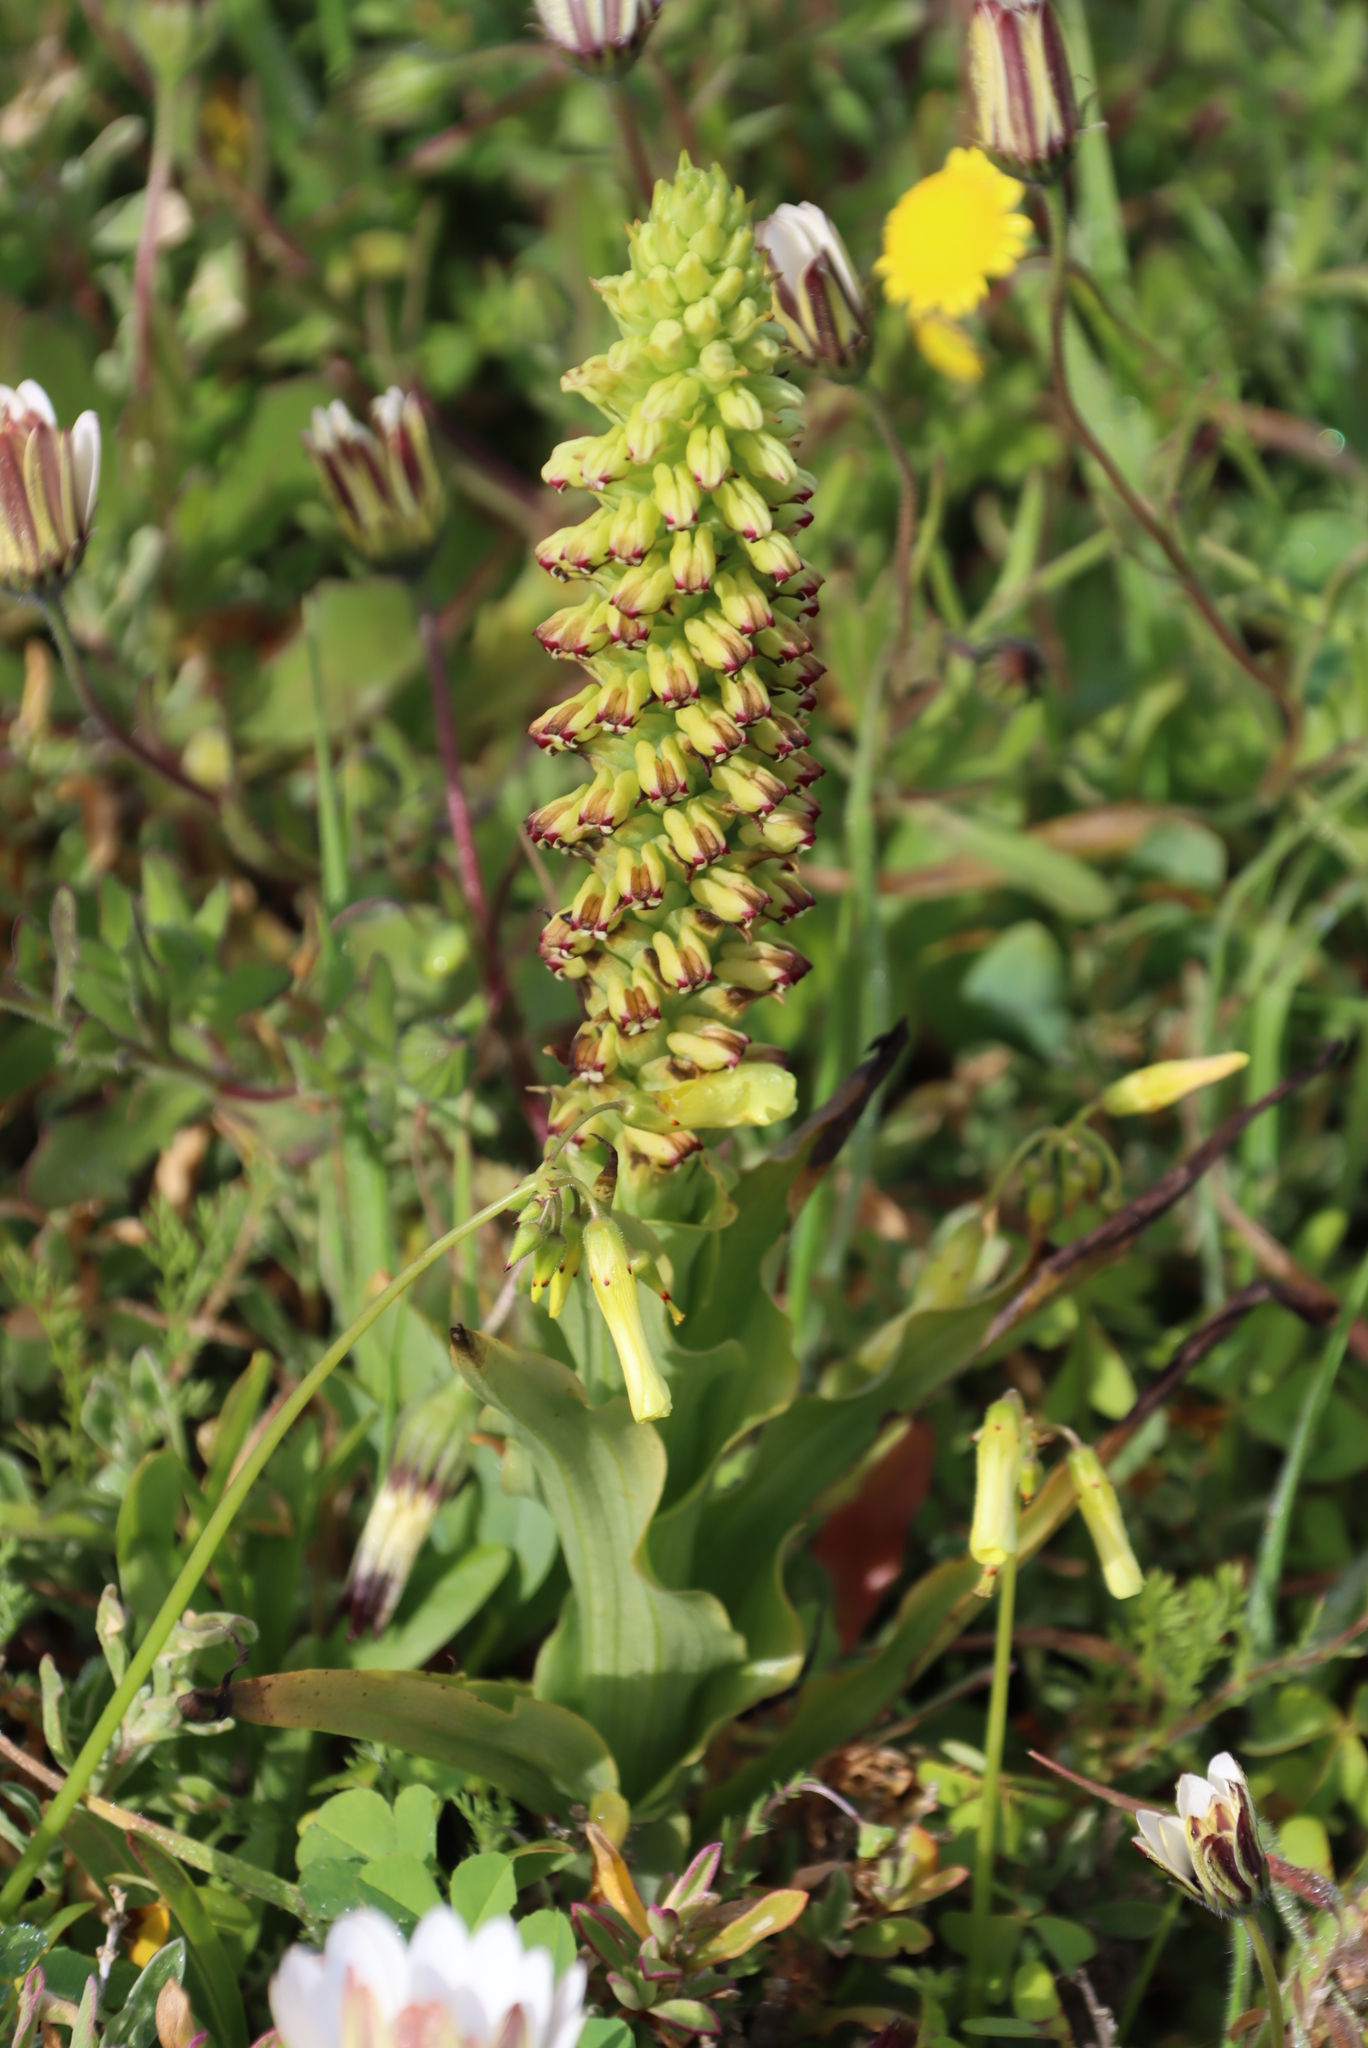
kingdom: Plantae
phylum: Tracheophyta
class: Liliopsida
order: Asparagales
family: Orchidaceae
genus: Corycium
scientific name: Corycium orobanchoides
